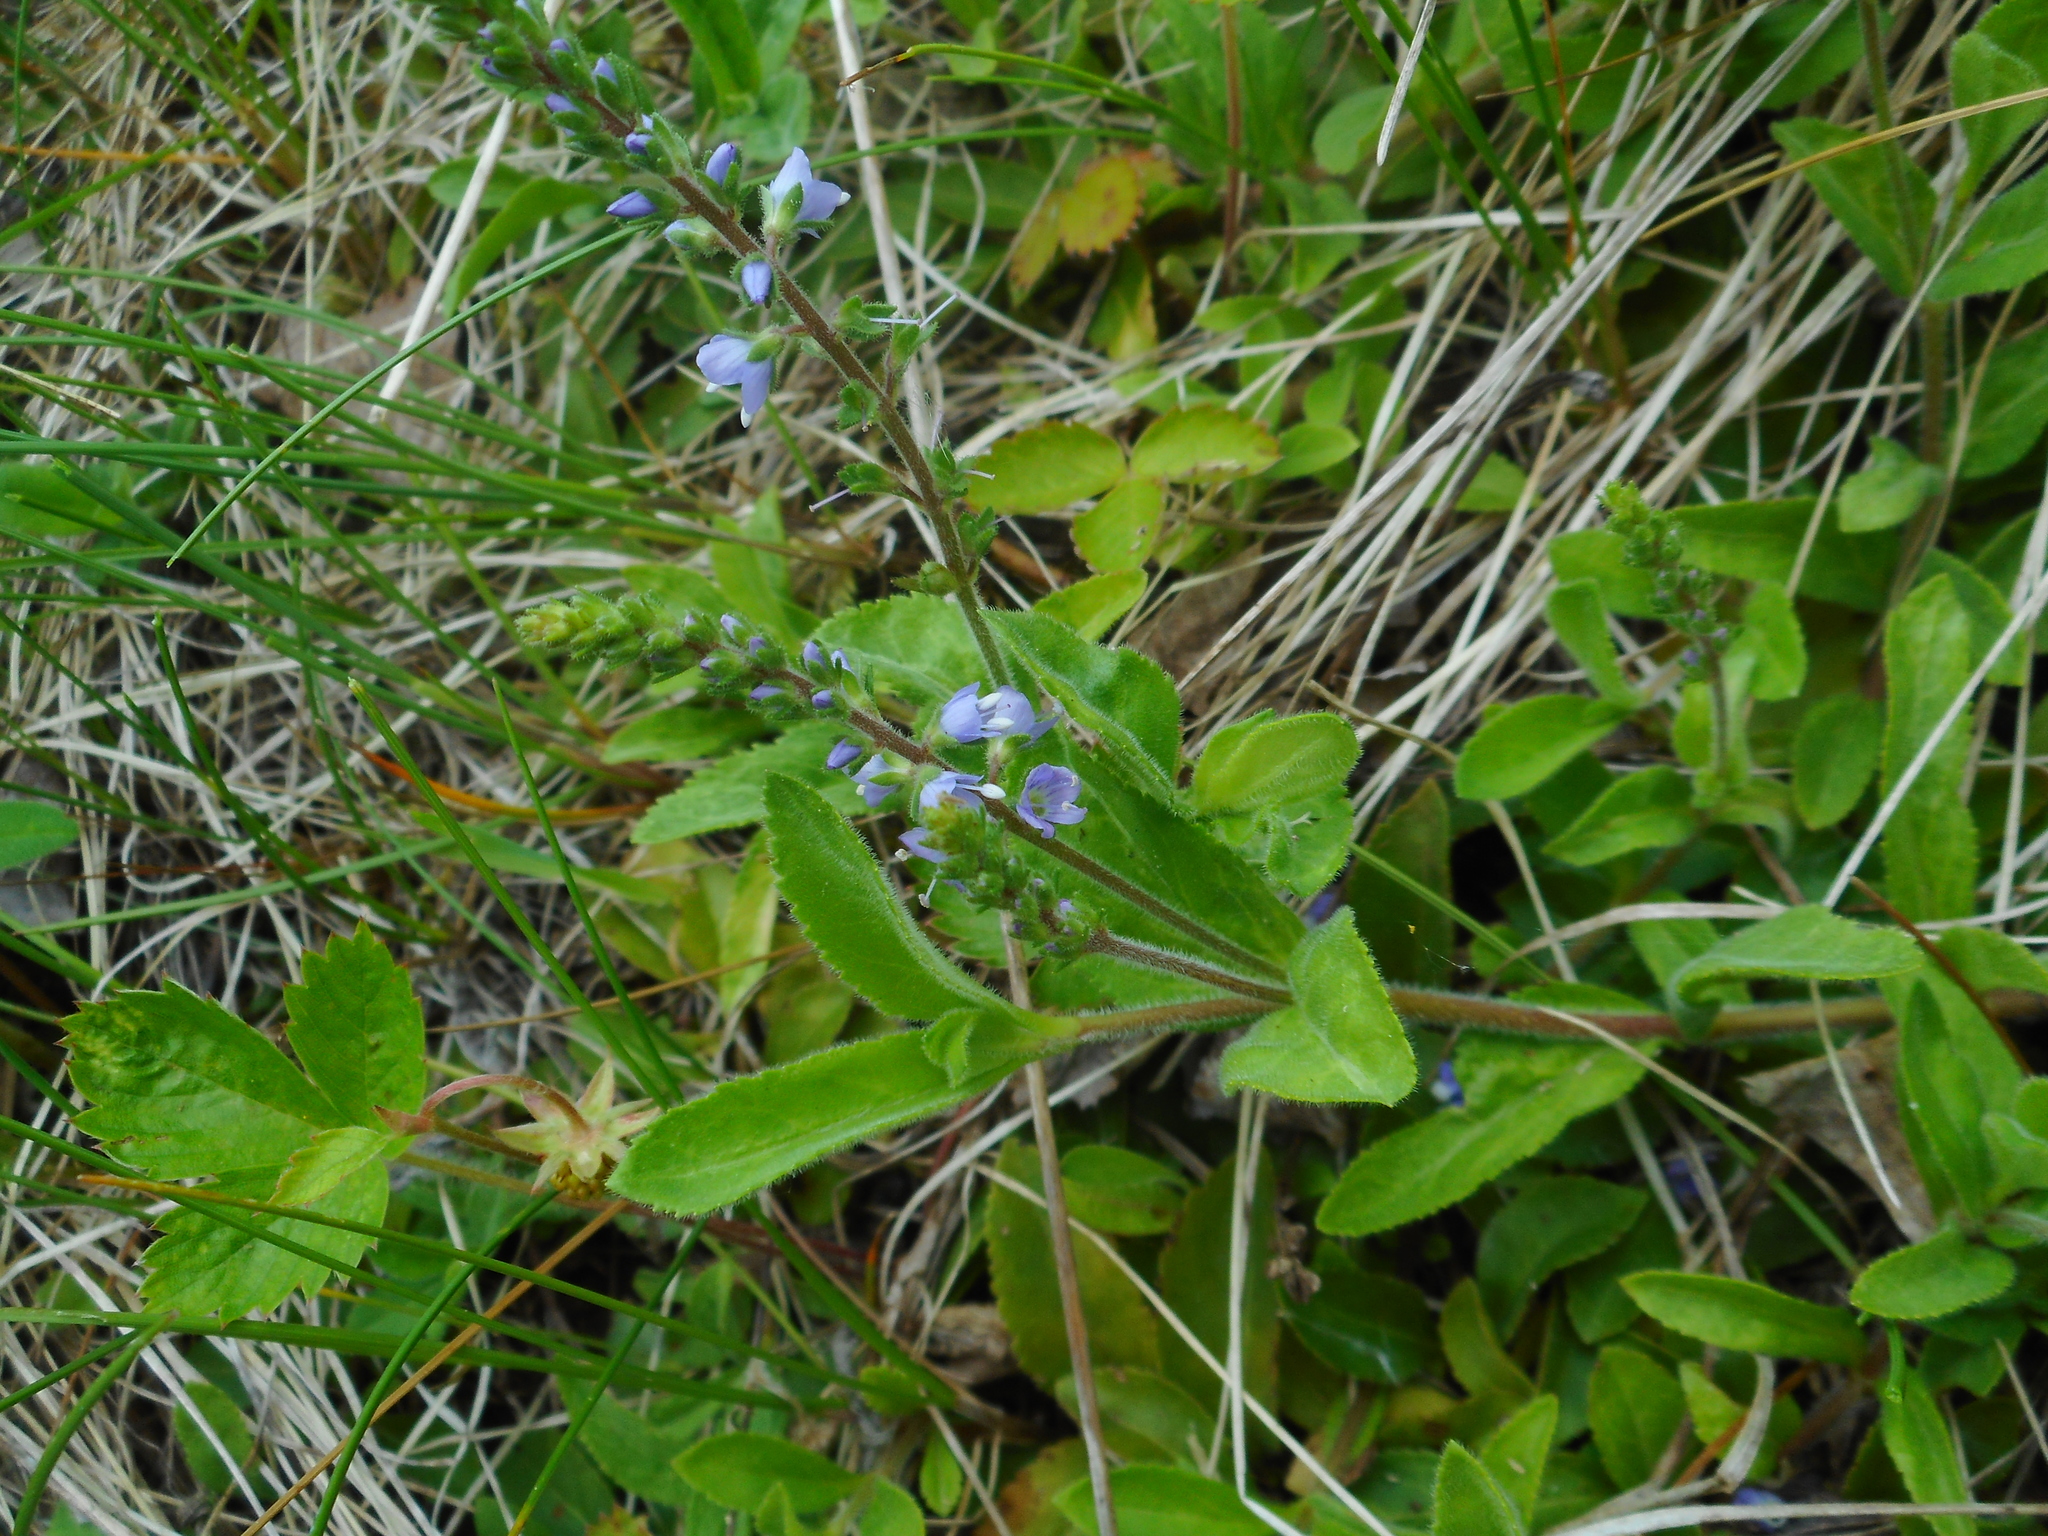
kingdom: Plantae
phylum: Tracheophyta
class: Magnoliopsida
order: Lamiales
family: Plantaginaceae
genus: Veronica
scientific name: Veronica officinalis
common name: Common speedwell
